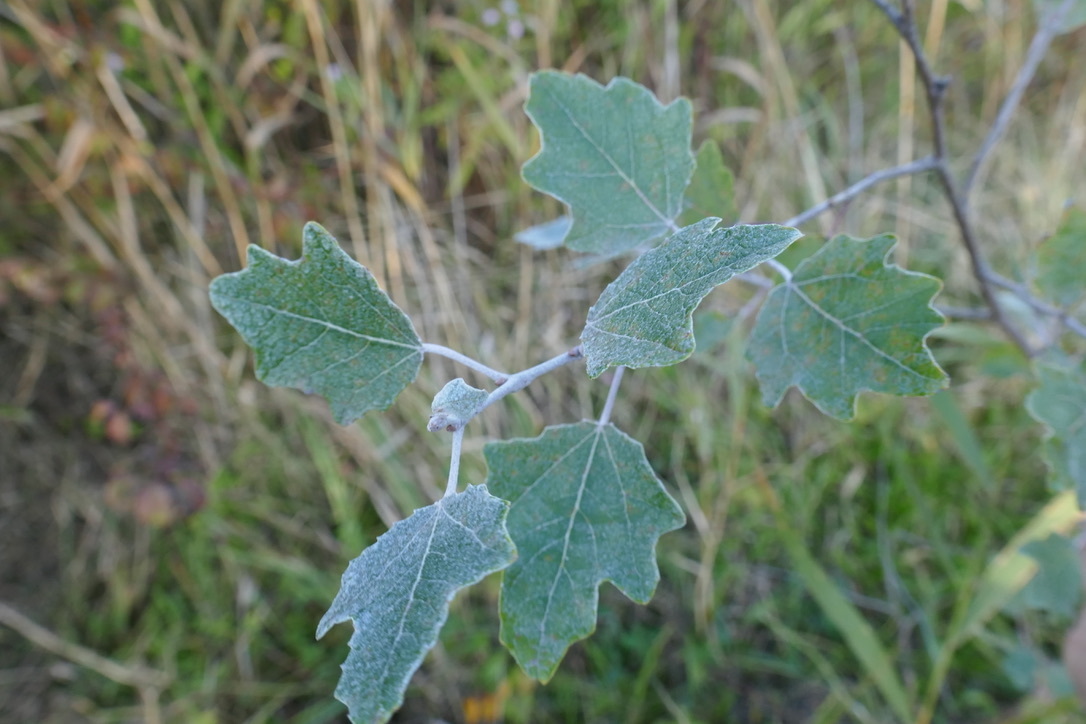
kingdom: Plantae
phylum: Tracheophyta
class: Magnoliopsida
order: Malpighiales
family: Salicaceae
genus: Populus
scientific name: Populus alba
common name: White poplar
